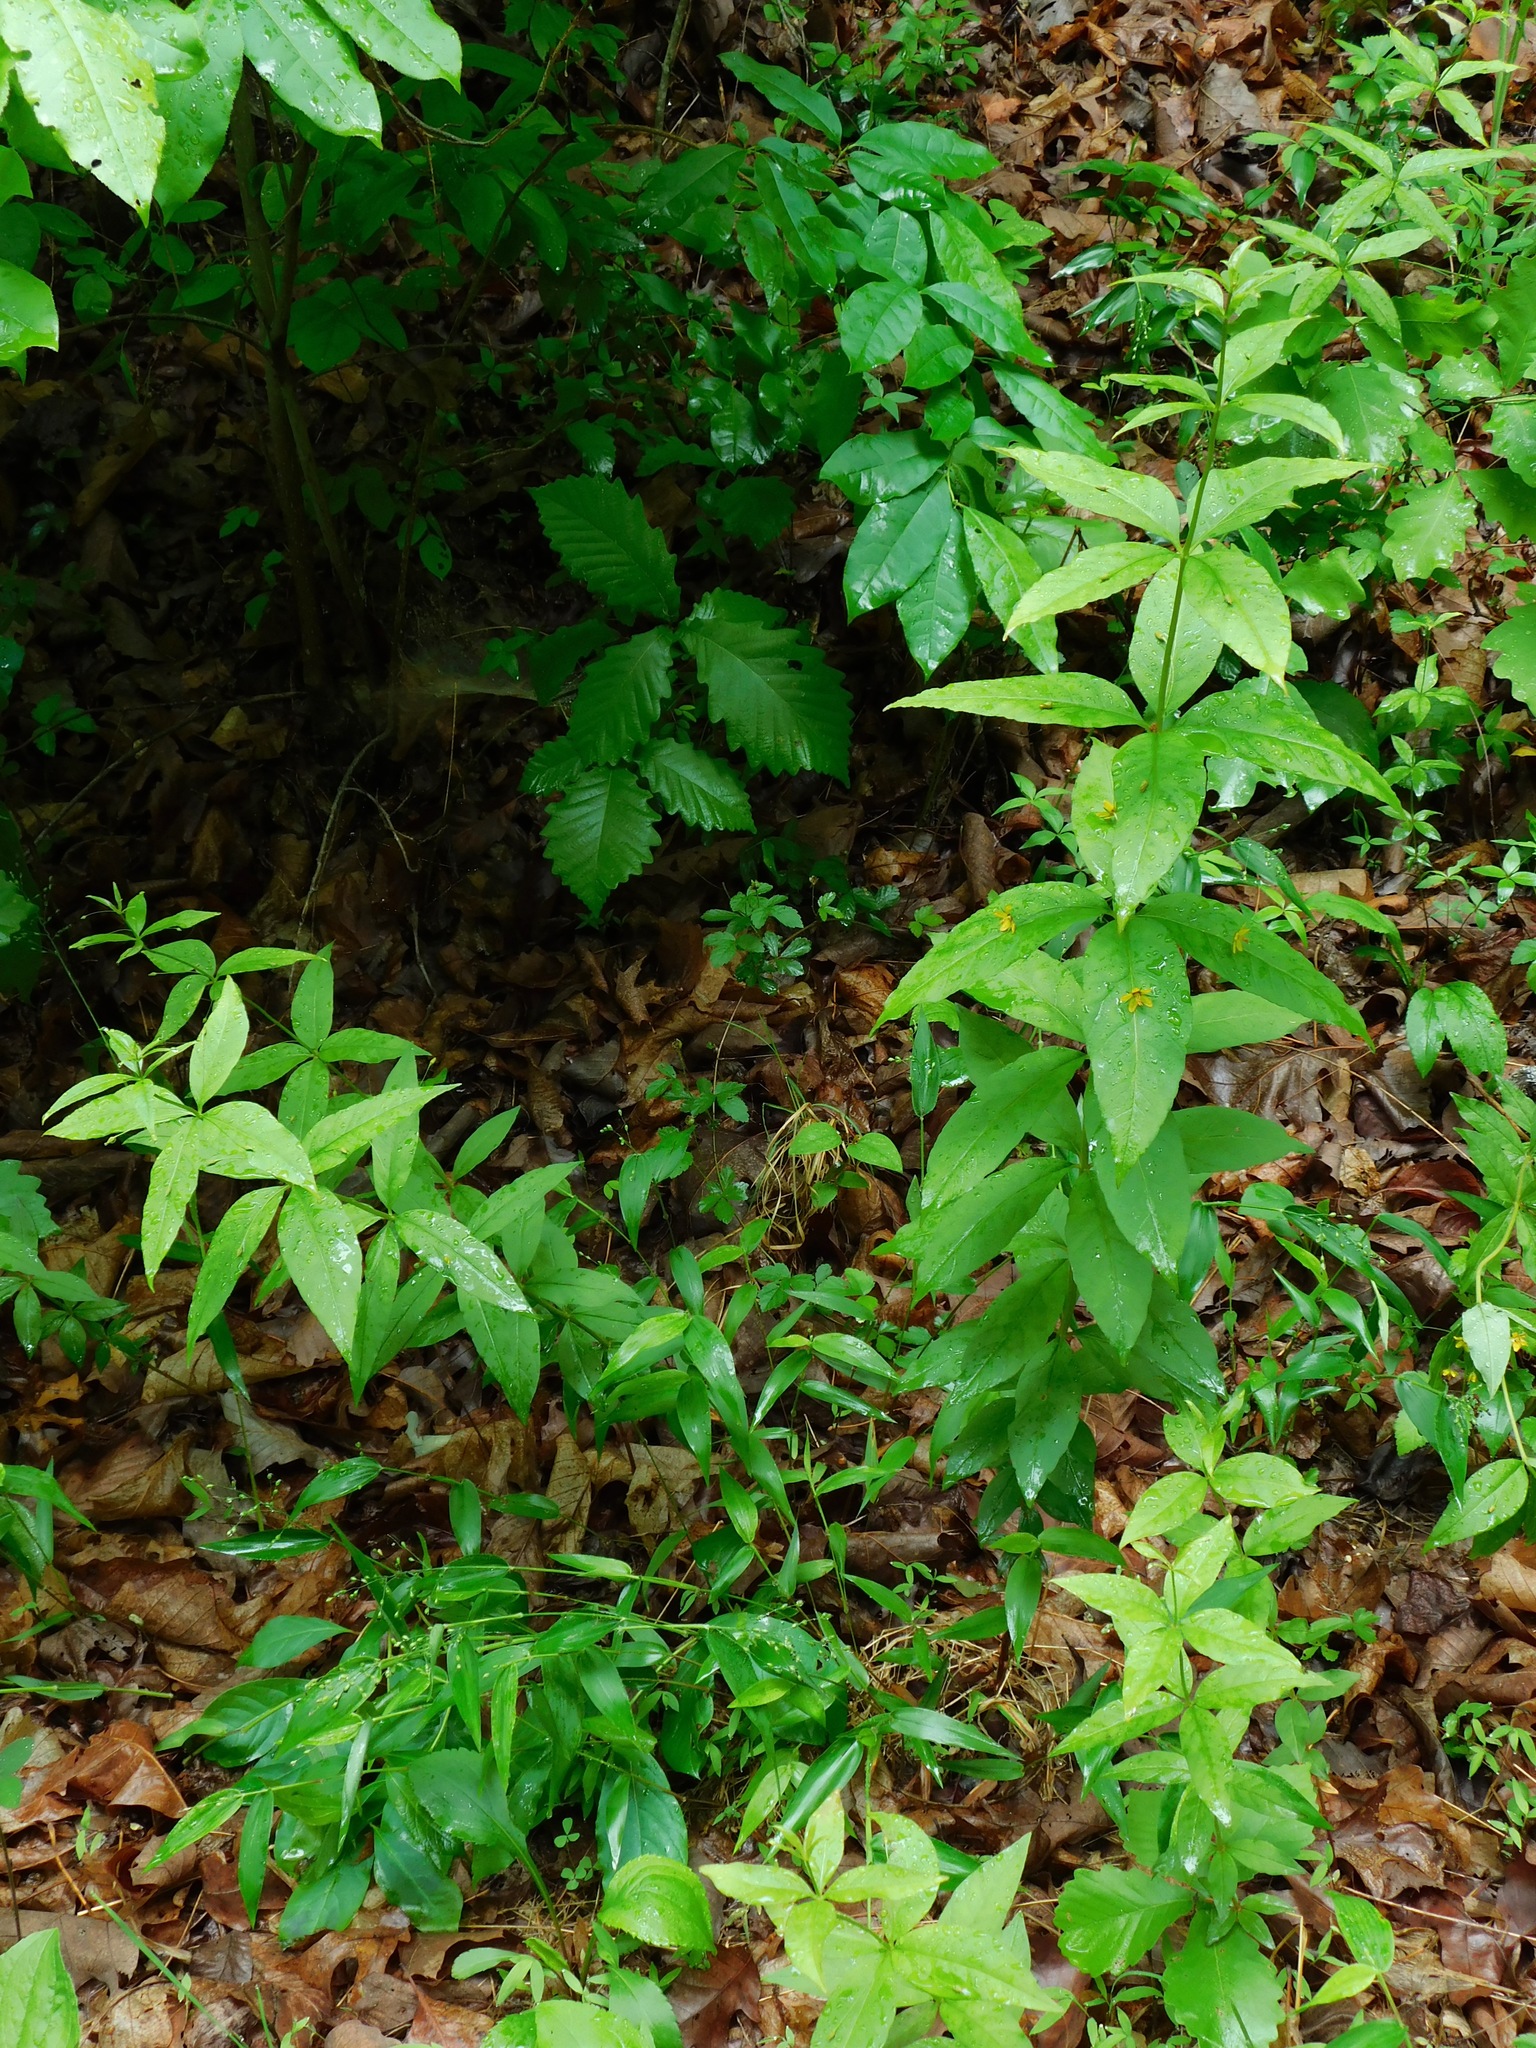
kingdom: Plantae
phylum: Tracheophyta
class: Magnoliopsida
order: Ericales
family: Primulaceae
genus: Lysimachia
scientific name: Lysimachia quadrifolia
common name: Whorled loosestrife
